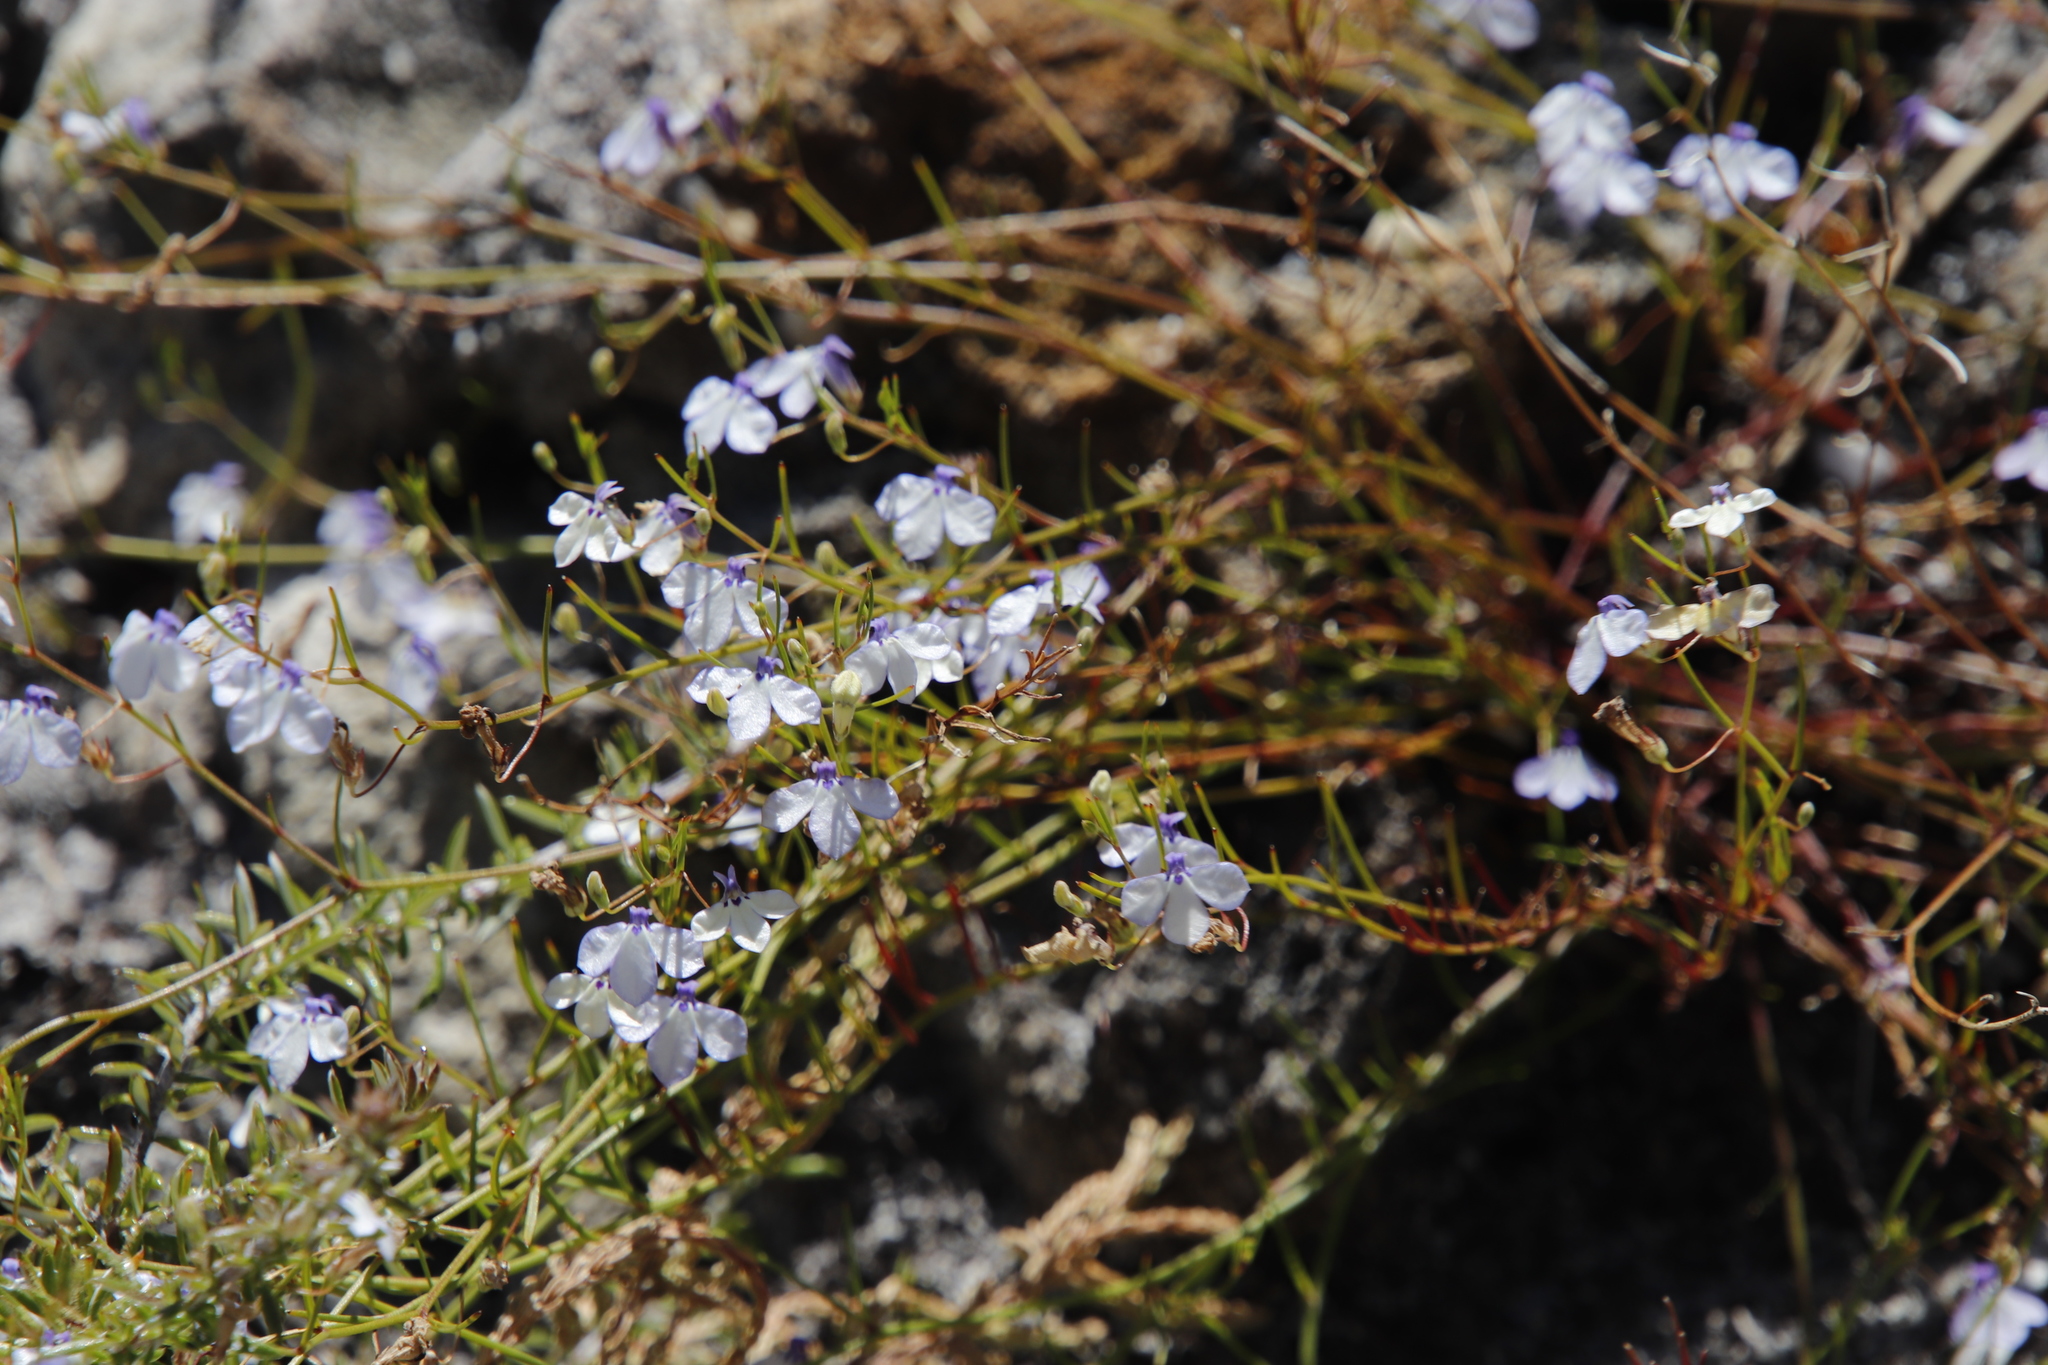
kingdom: Plantae
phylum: Tracheophyta
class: Magnoliopsida
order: Asterales
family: Campanulaceae
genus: Lobelia
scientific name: Lobelia setacea
